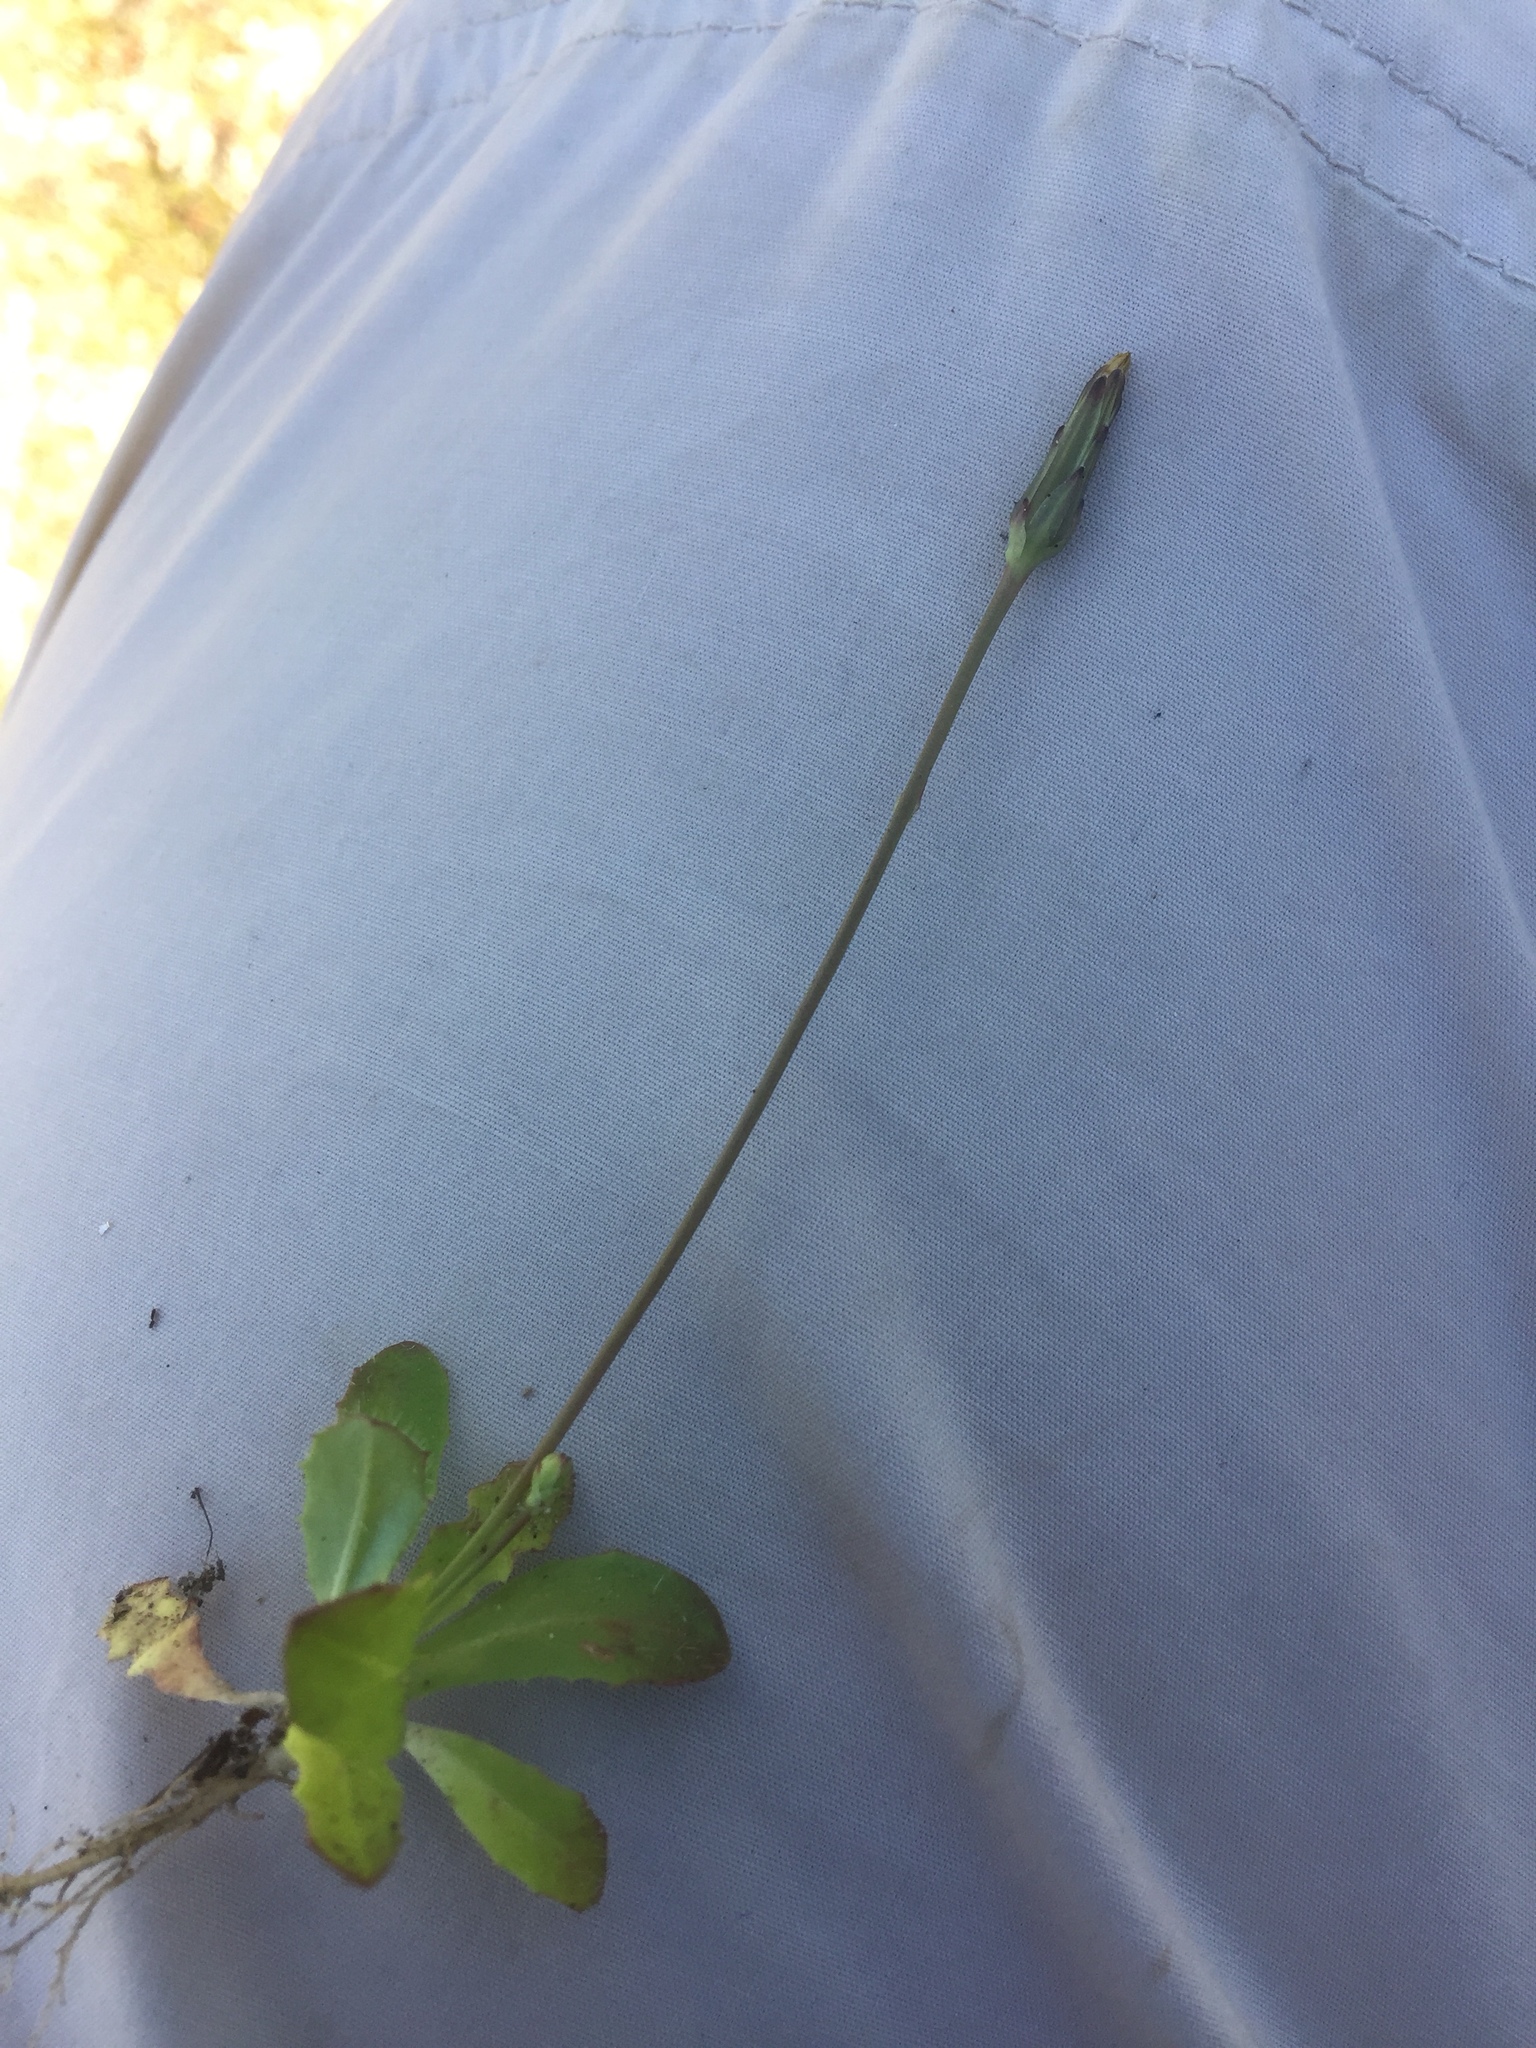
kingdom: Plantae
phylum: Tracheophyta
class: Magnoliopsida
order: Asterales
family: Asteraceae
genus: Hypochaeris
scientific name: Hypochaeris glabra
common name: Smooth catsear
